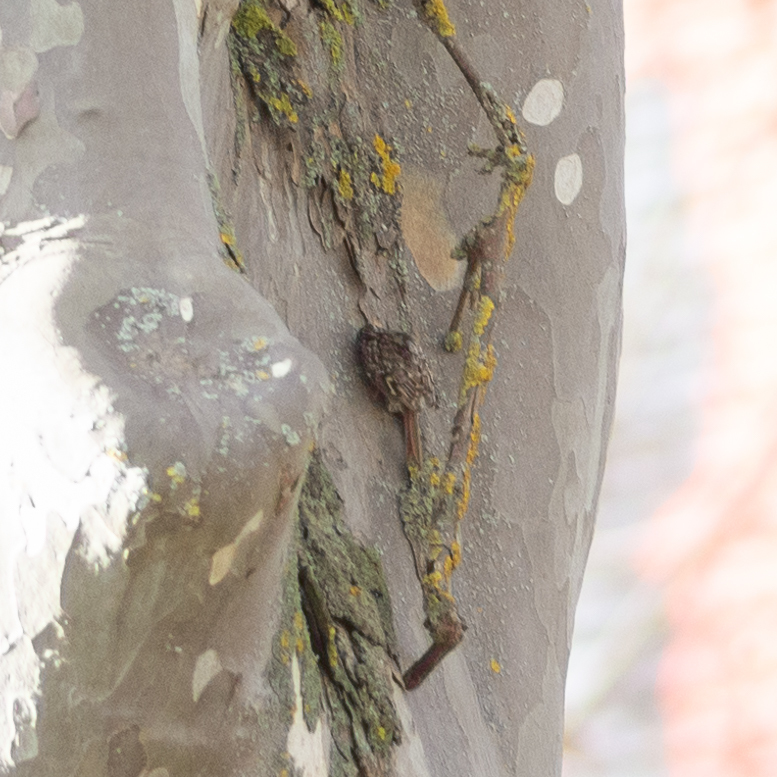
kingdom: Animalia
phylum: Chordata
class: Aves
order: Passeriformes
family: Certhiidae
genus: Certhia
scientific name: Certhia brachydactyla
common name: Short-toed treecreeper
